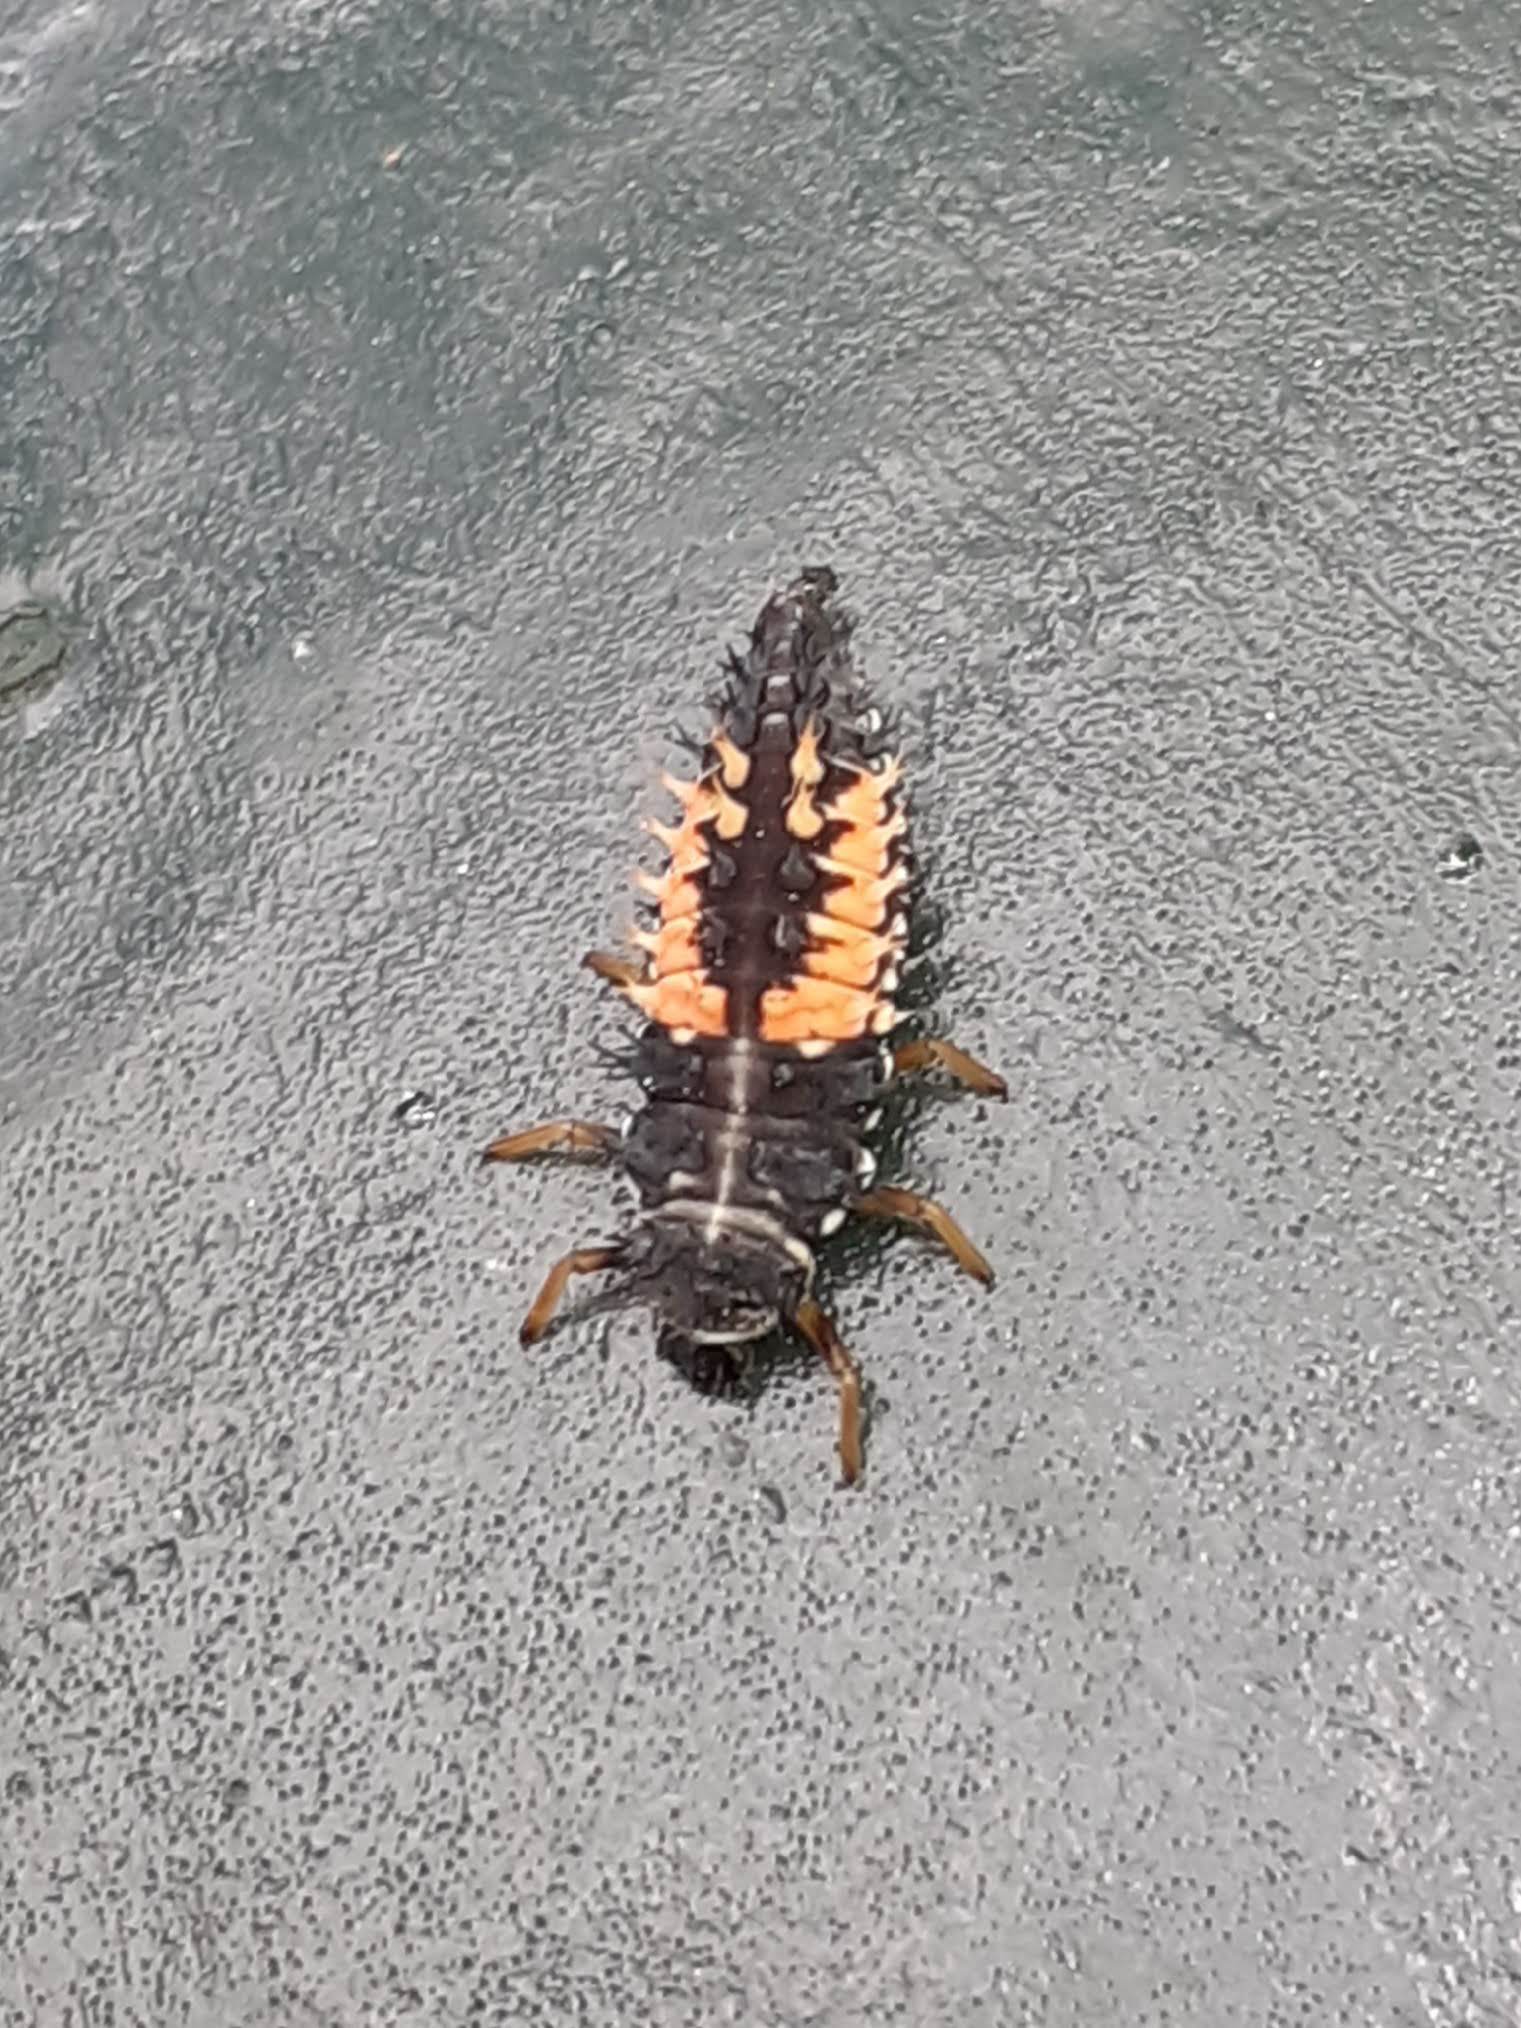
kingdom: Animalia
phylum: Arthropoda
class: Insecta
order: Coleoptera
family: Coccinellidae
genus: Harmonia
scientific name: Harmonia axyridis
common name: Harlequin ladybird
